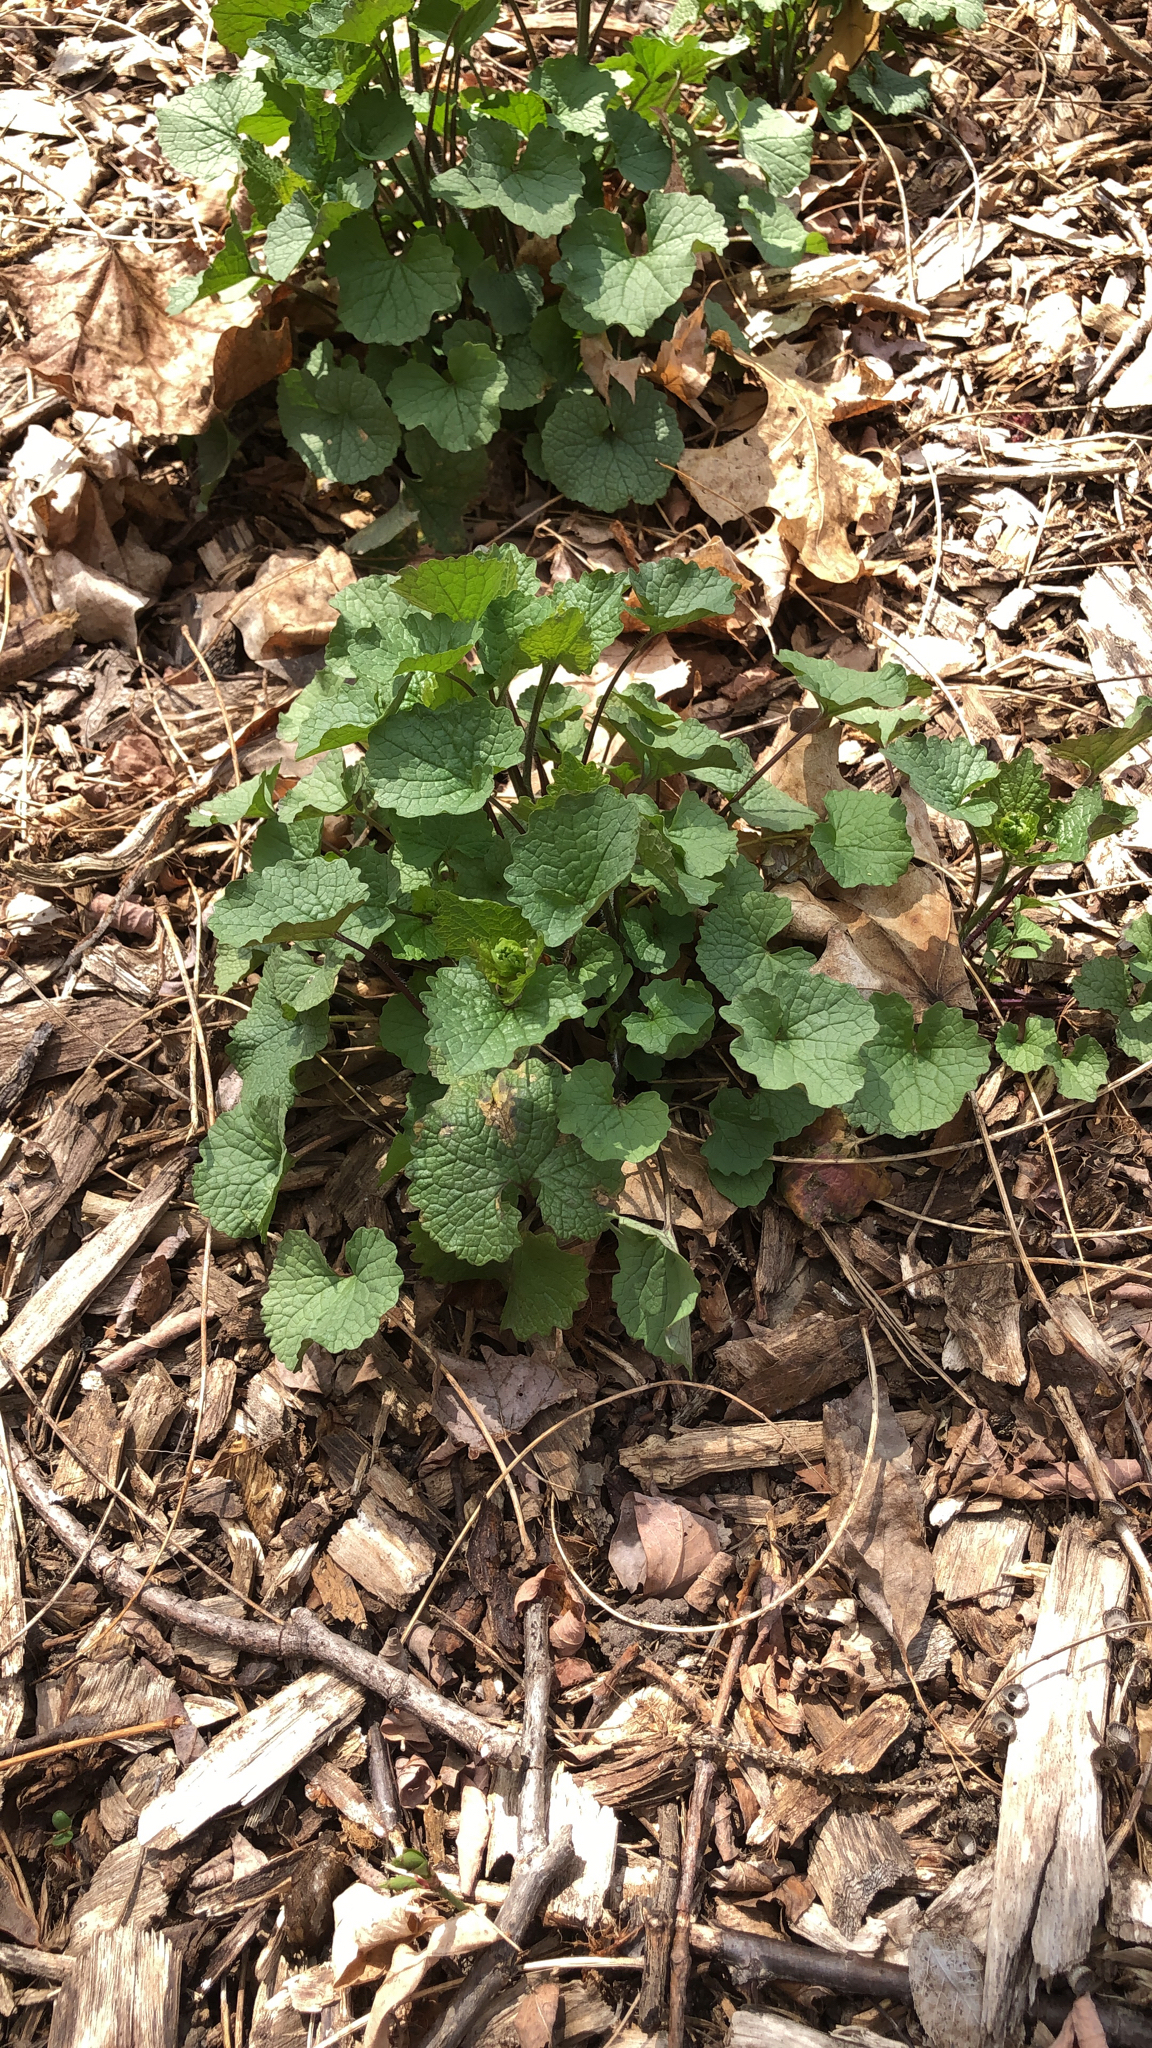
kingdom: Plantae
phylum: Tracheophyta
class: Magnoliopsida
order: Brassicales
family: Brassicaceae
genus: Alliaria
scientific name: Alliaria petiolata
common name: Garlic mustard
